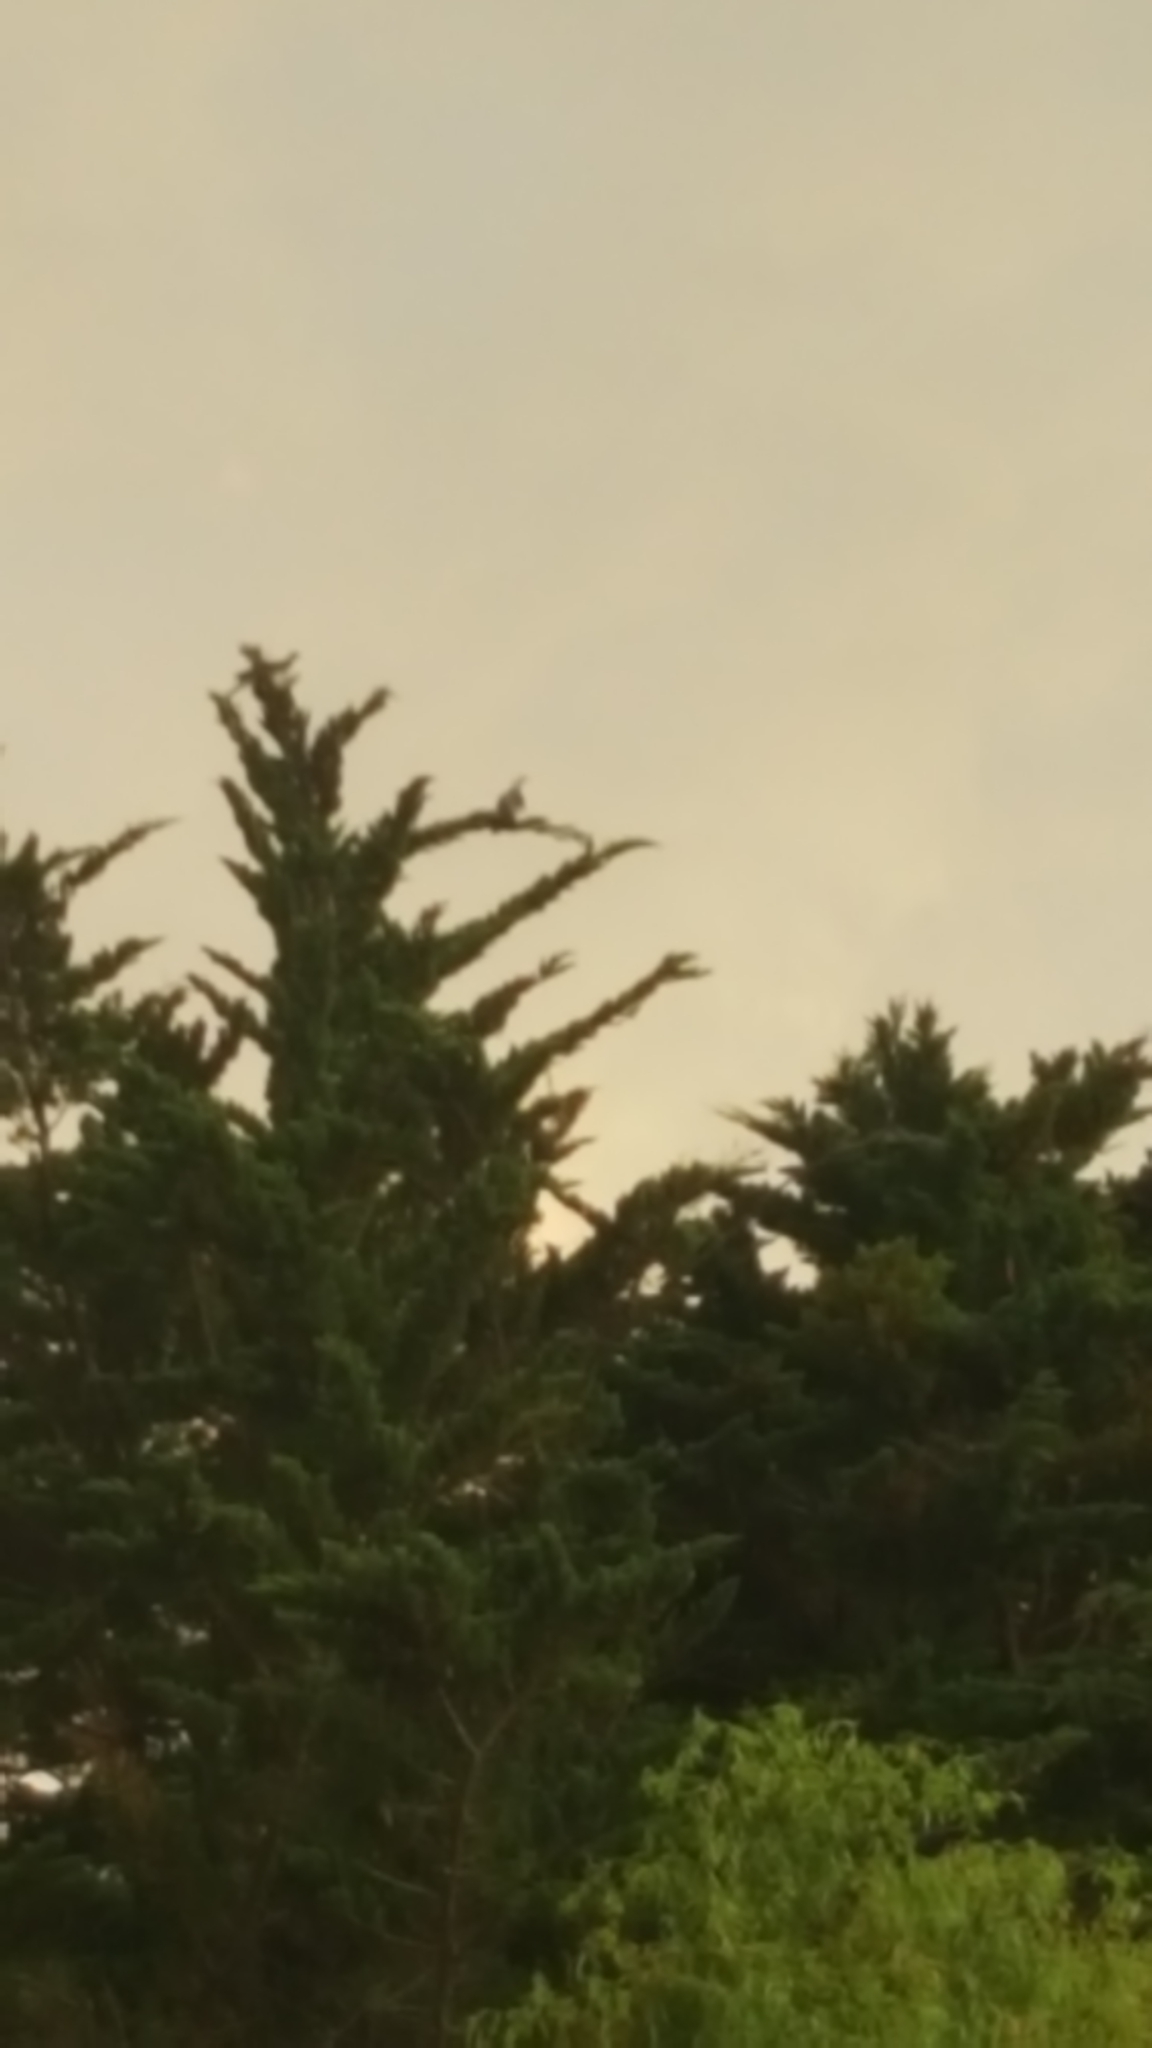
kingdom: Animalia
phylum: Chordata
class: Aves
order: Columbiformes
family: Columbidae
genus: Hemiphaga
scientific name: Hemiphaga novaeseelandiae
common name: New zealand pigeon
